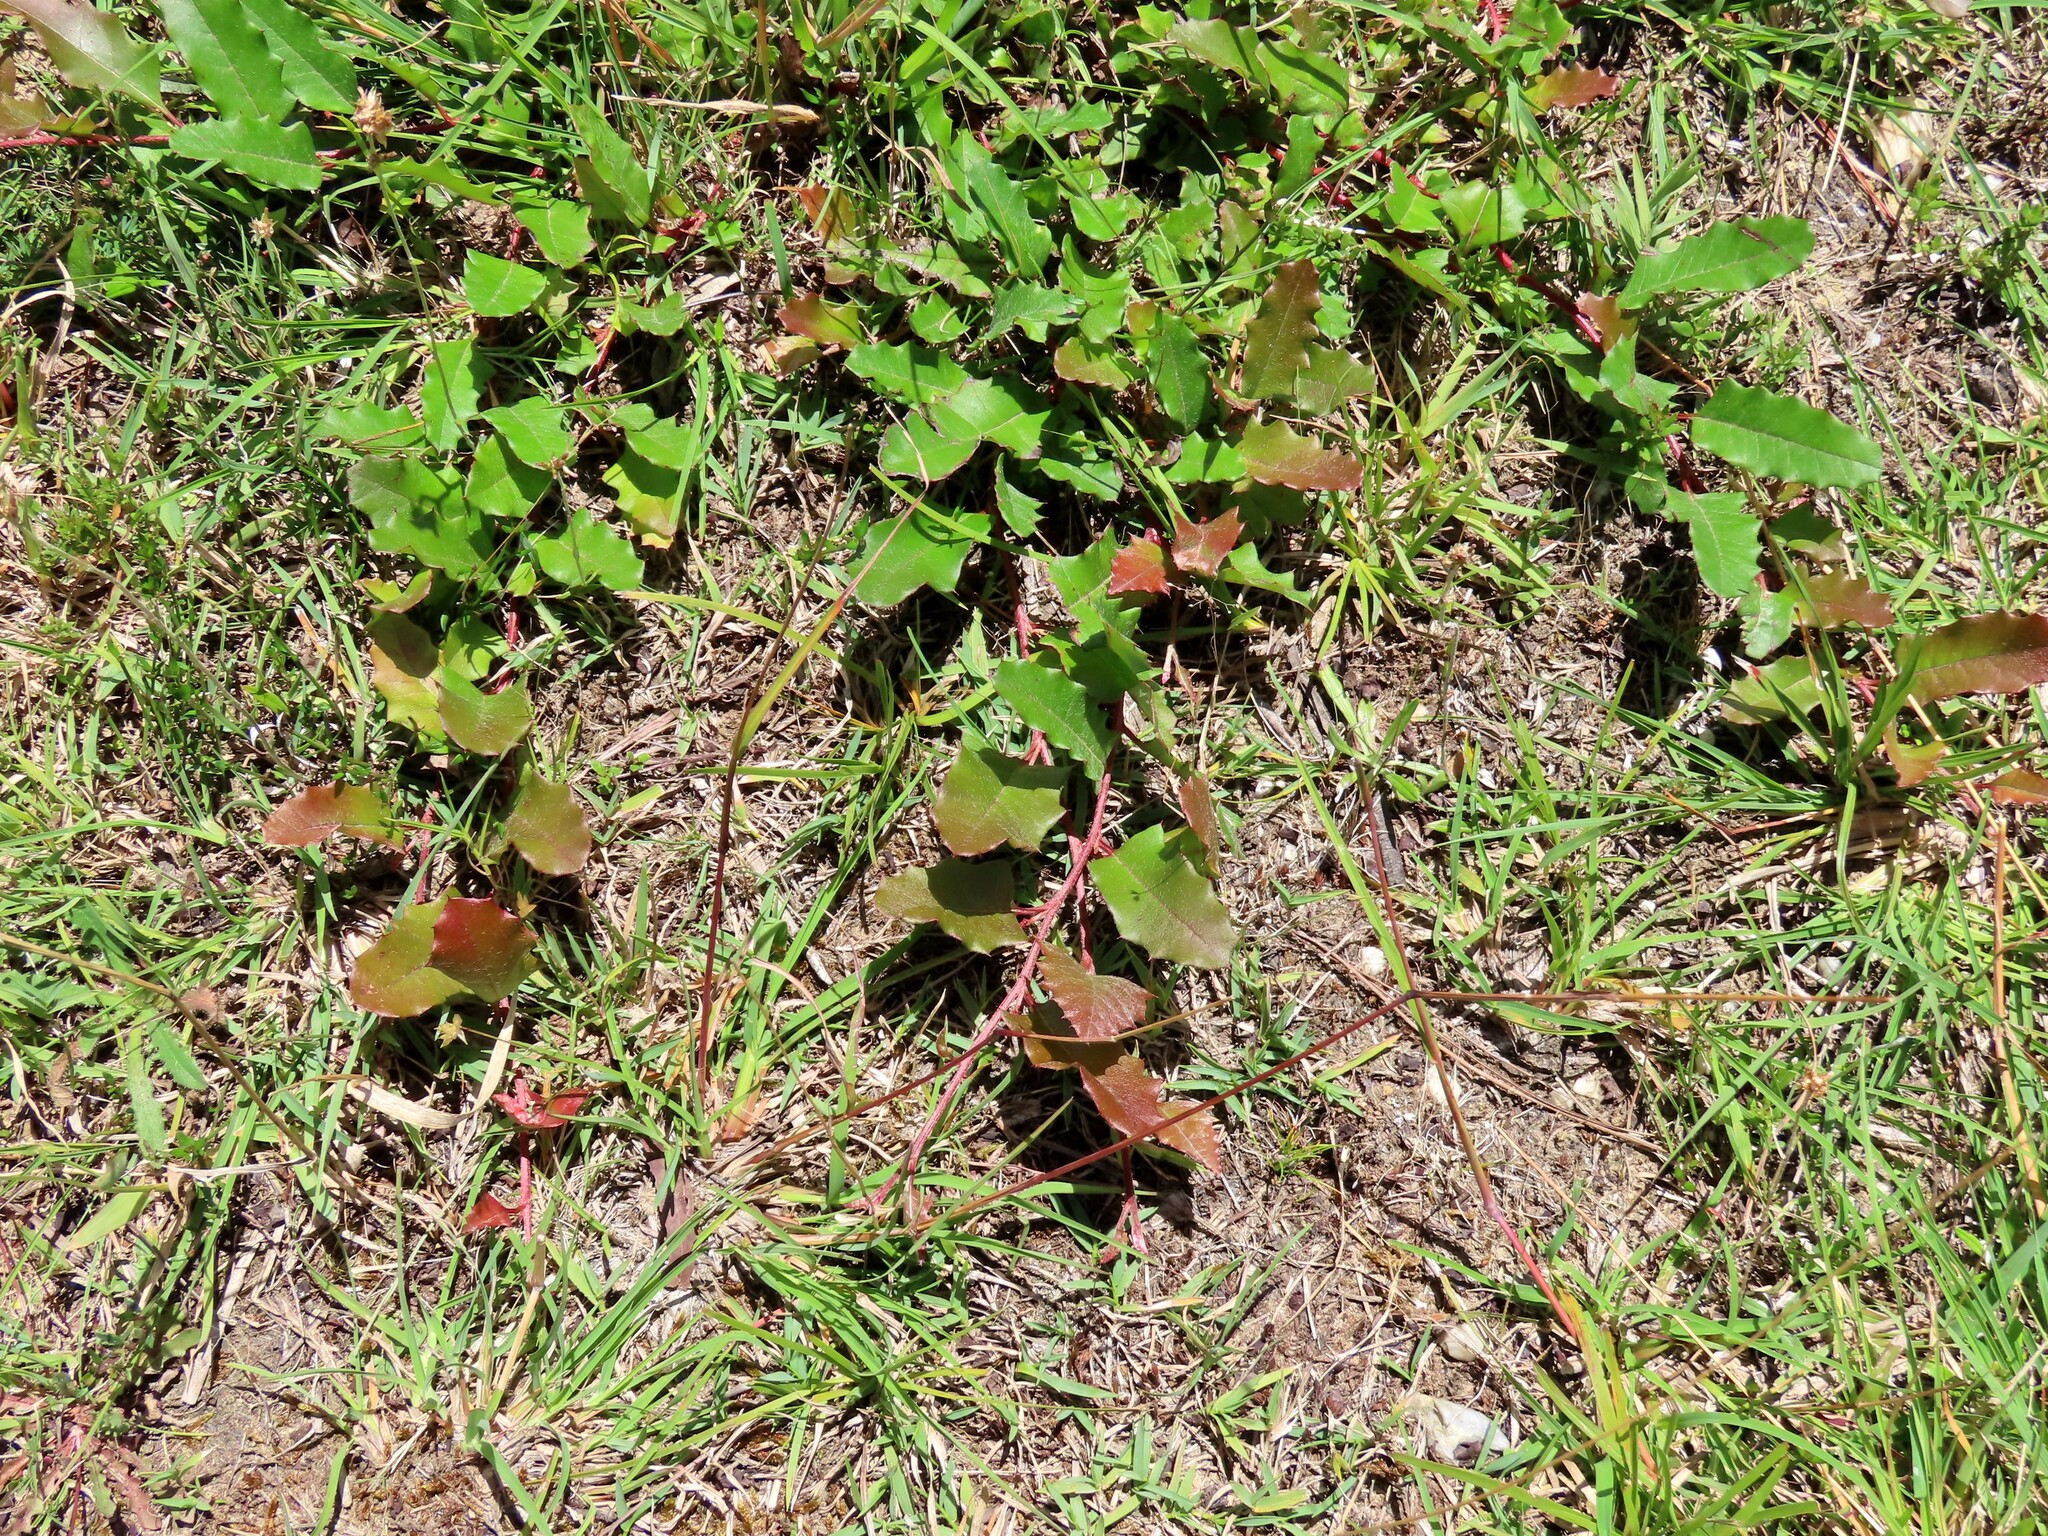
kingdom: Plantae
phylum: Tracheophyta
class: Magnoliopsida
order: Proteales
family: Proteaceae
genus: Grevillea
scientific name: Grevillea repens
